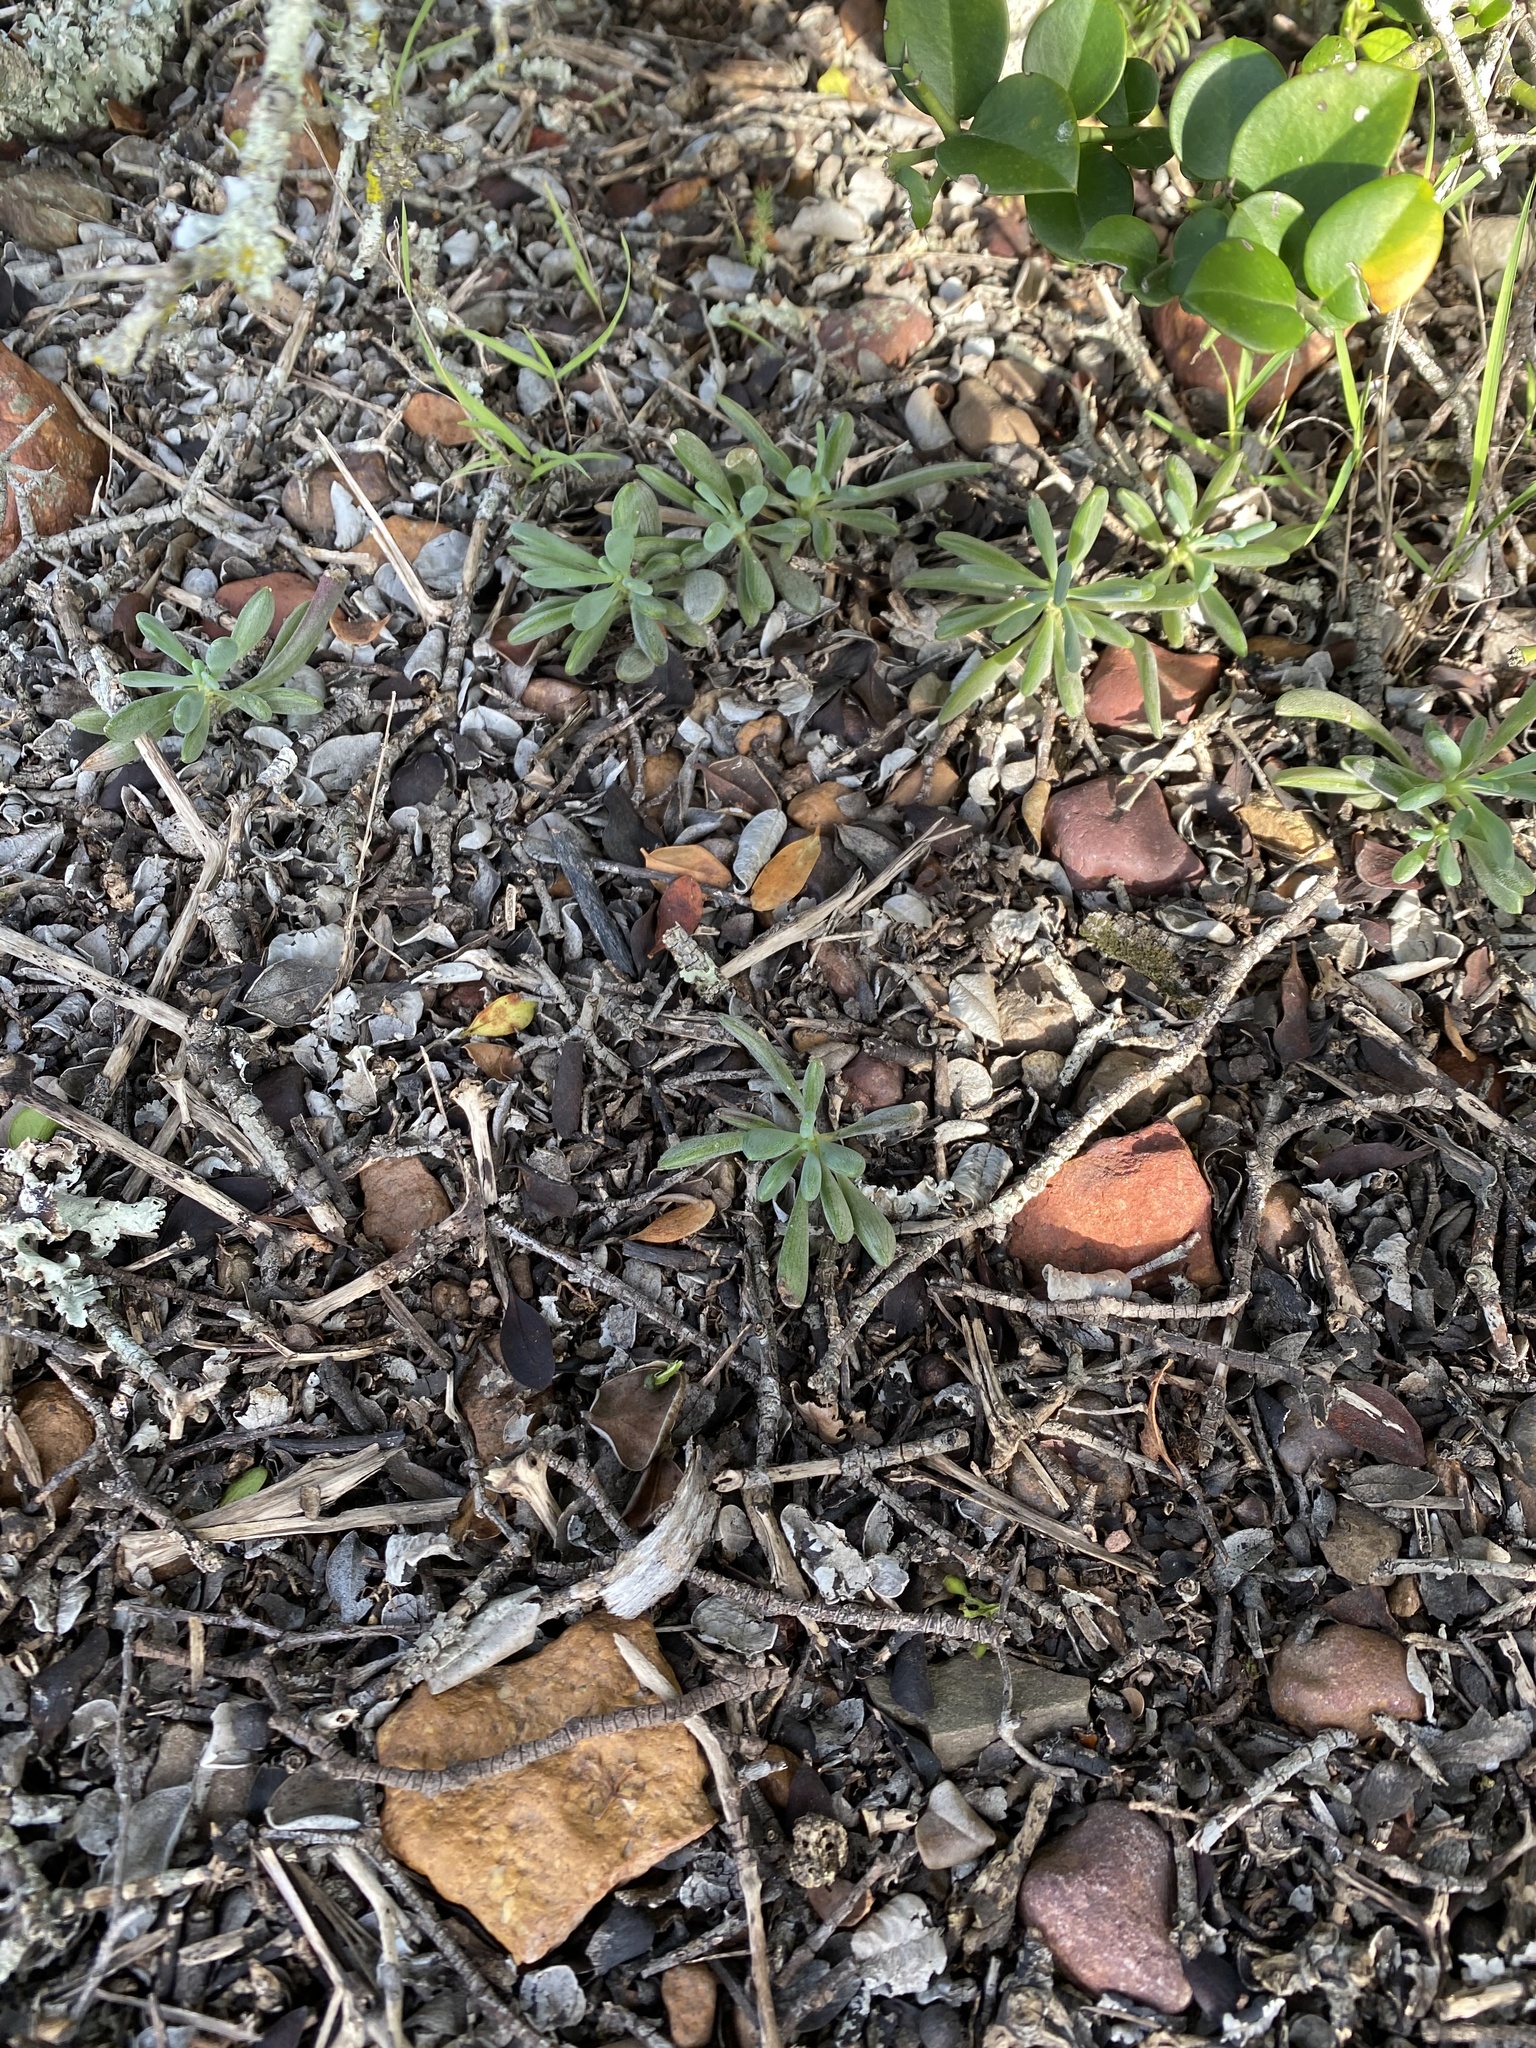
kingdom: Plantae
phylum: Tracheophyta
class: Magnoliopsida
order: Asterales
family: Asteraceae
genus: Curio
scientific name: Curio archeri
